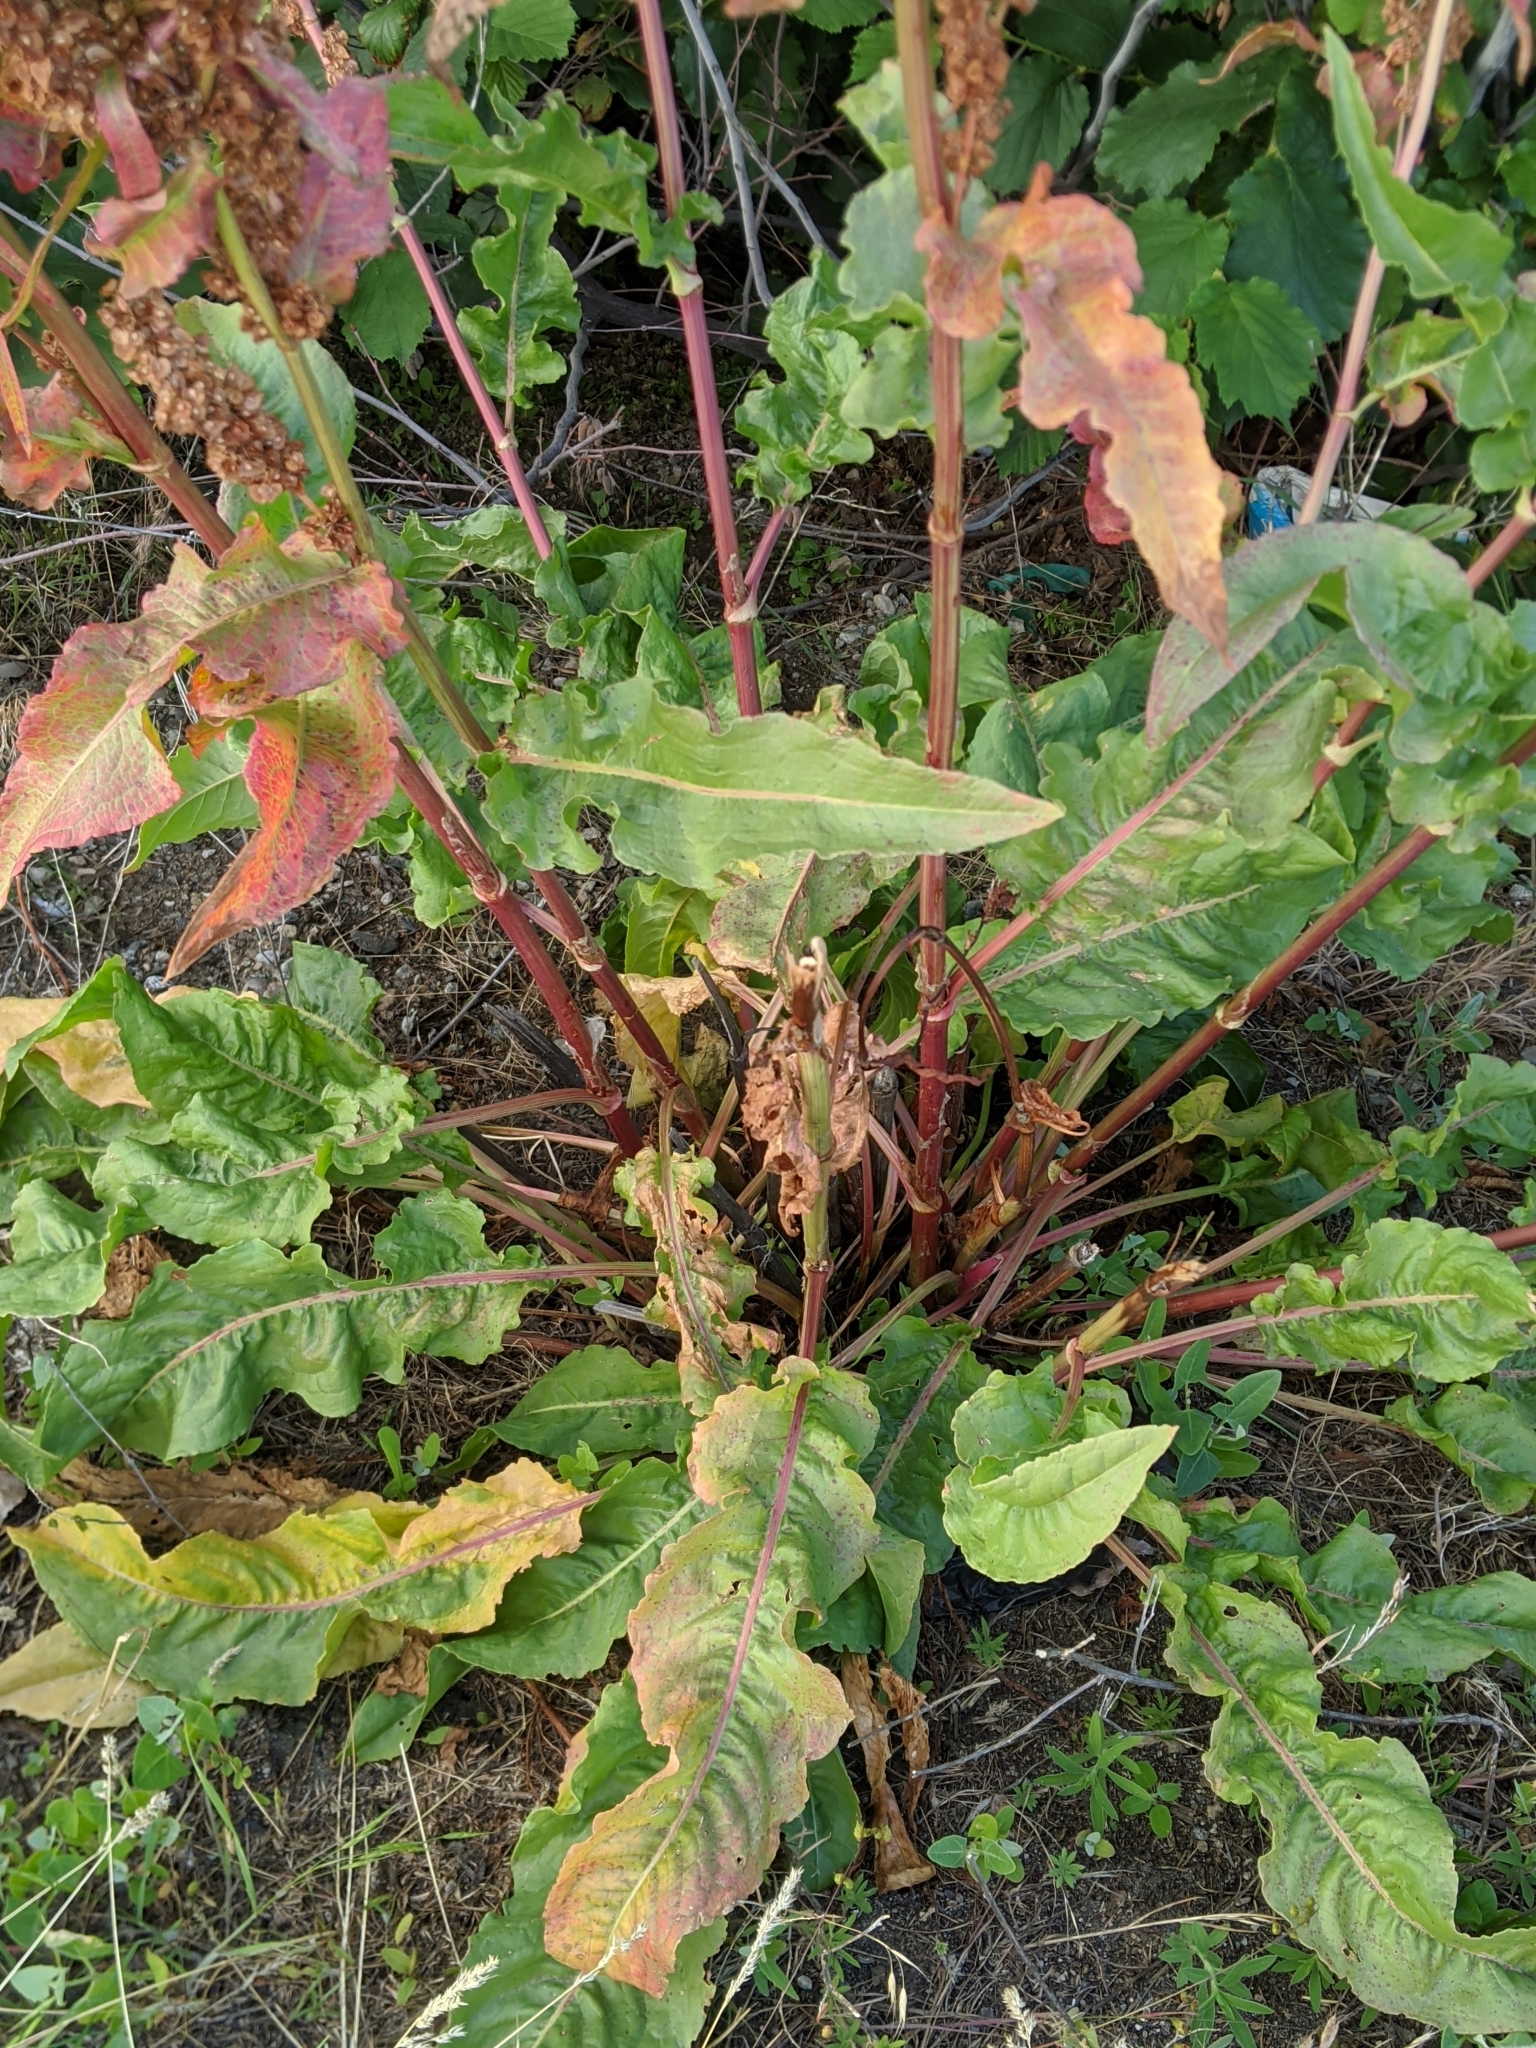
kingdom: Plantae
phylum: Tracheophyta
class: Magnoliopsida
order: Caryophyllales
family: Polygonaceae
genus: Rumex
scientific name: Rumex crispus
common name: Curled dock
